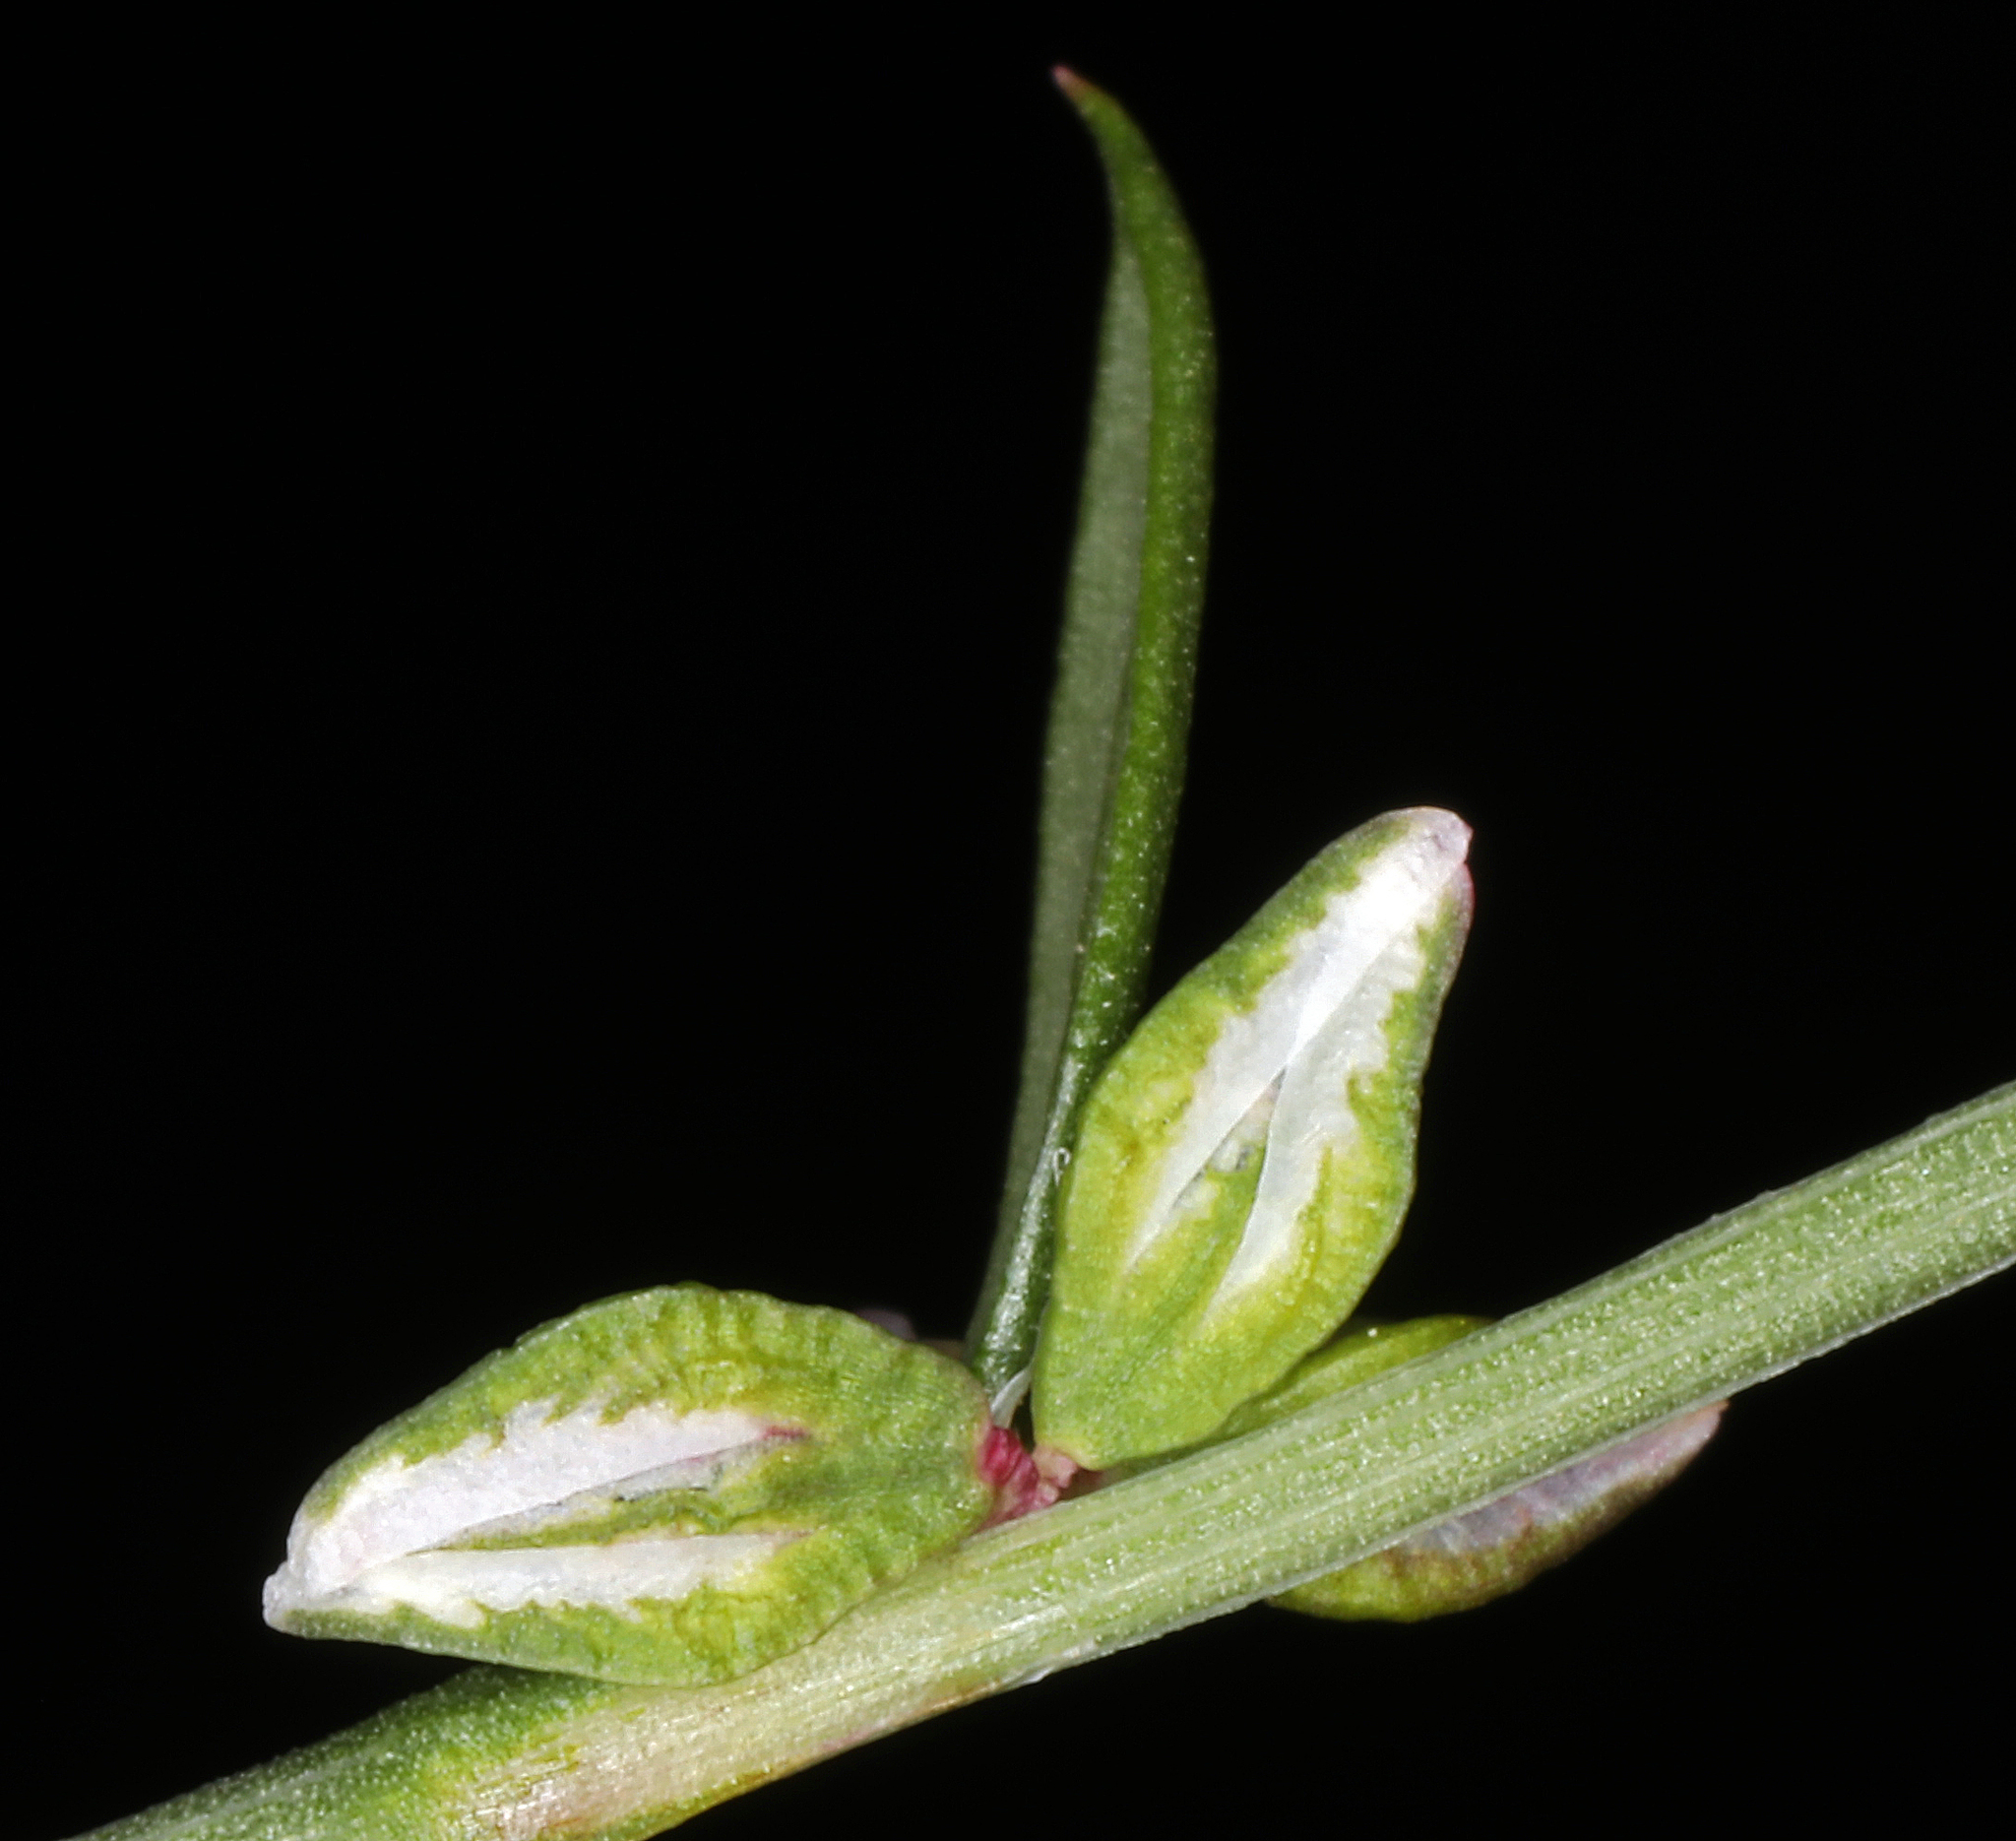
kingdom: Plantae
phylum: Tracheophyta
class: Magnoliopsida
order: Caryophyllales
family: Polygonaceae
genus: Polygonum
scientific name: Polygonum douglasii
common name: Douglas' knotweed
